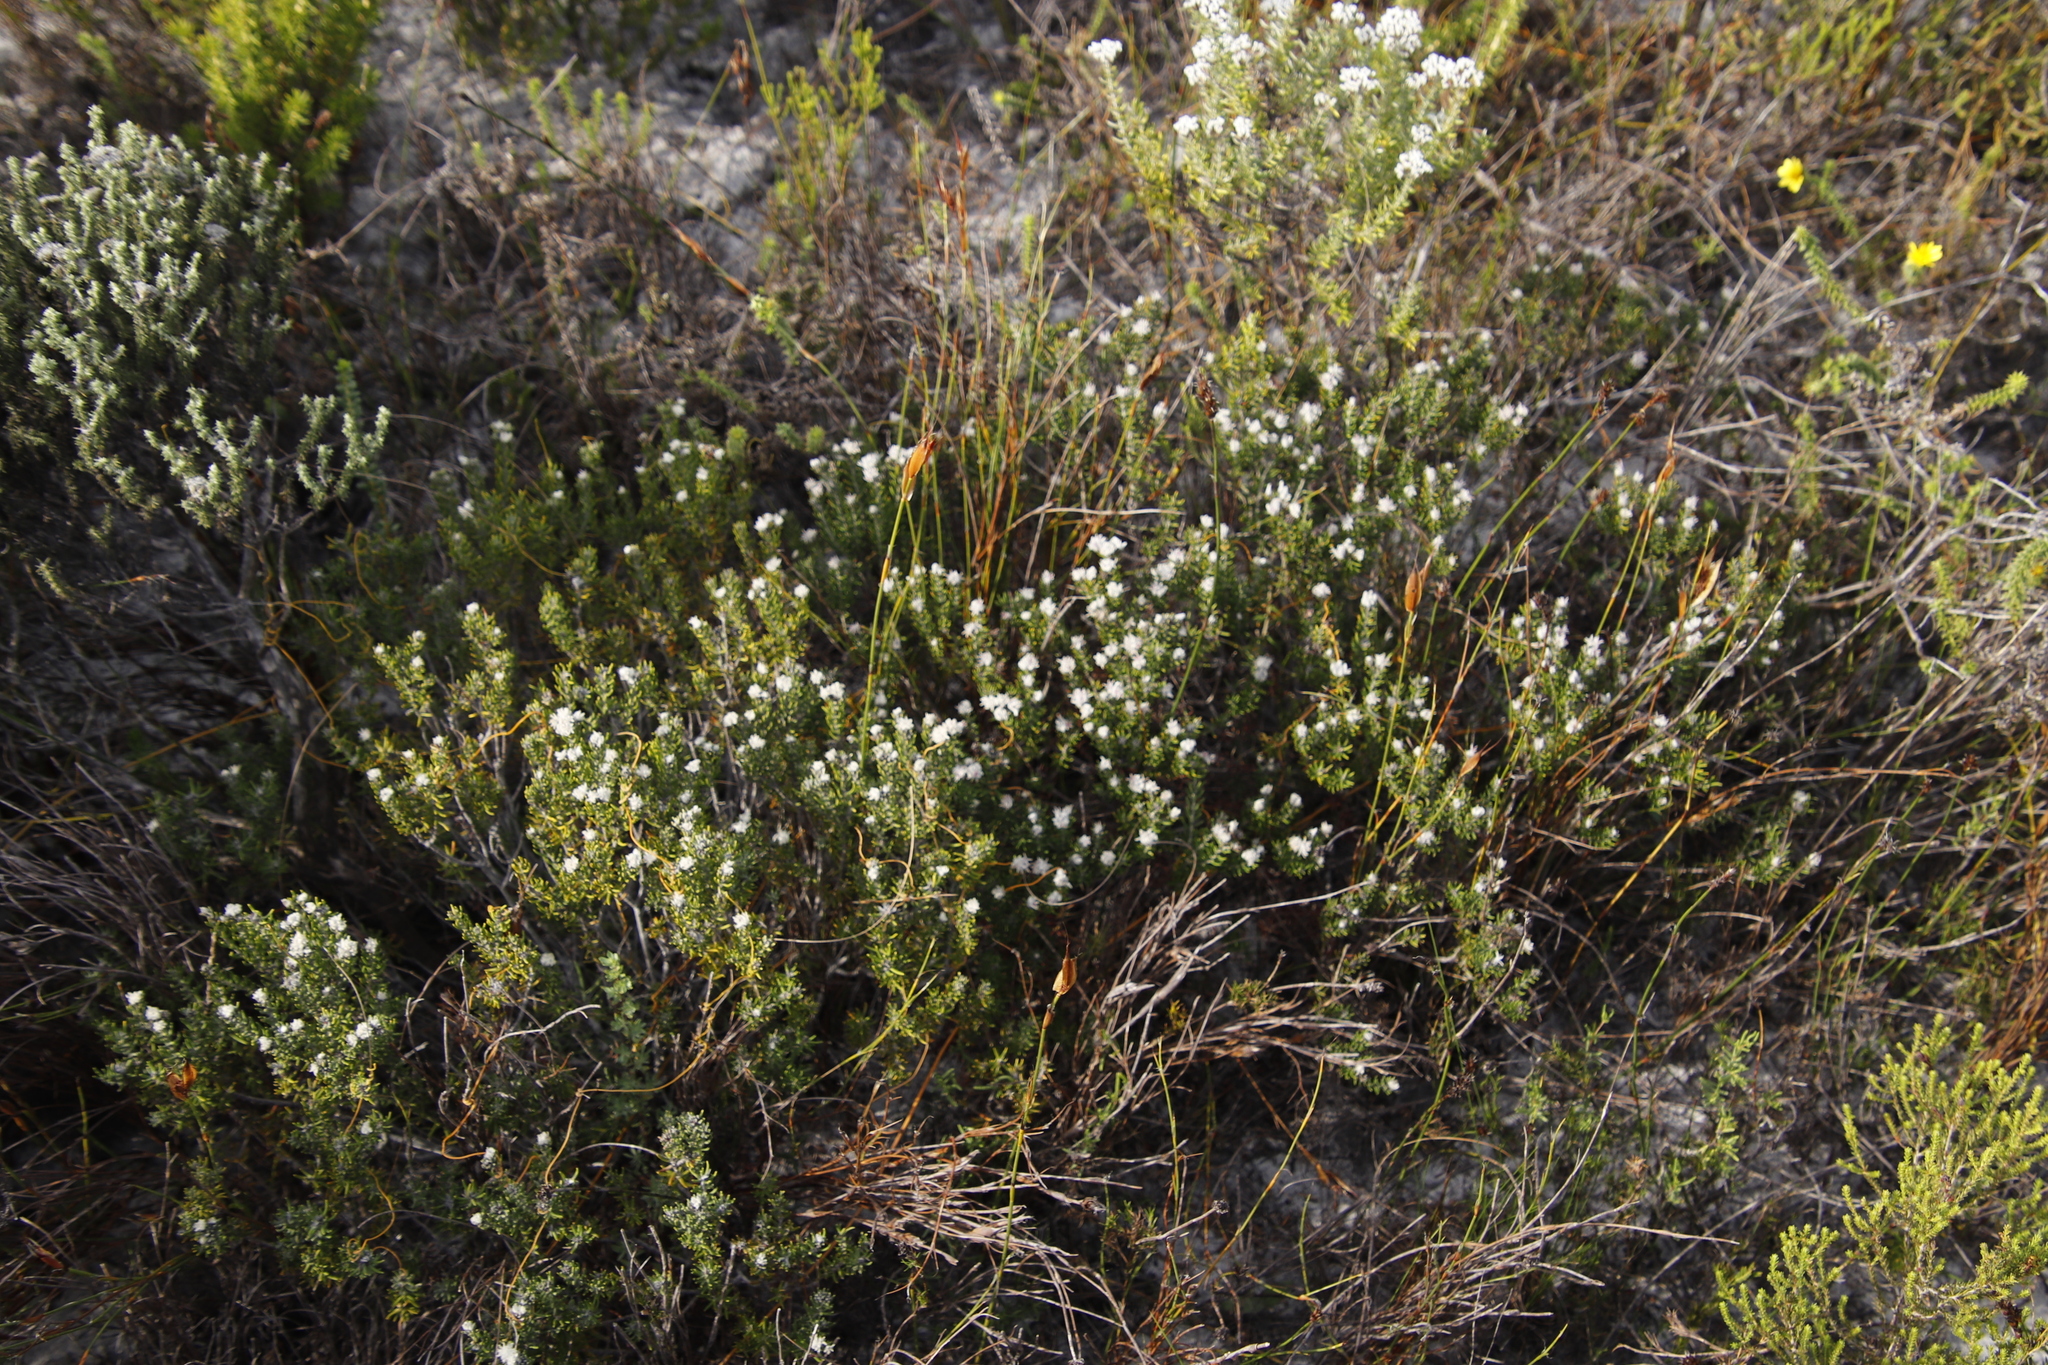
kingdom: Plantae
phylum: Tracheophyta
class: Magnoliopsida
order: Rosales
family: Rhamnaceae
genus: Trichocephalus
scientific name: Trichocephalus stipularis
